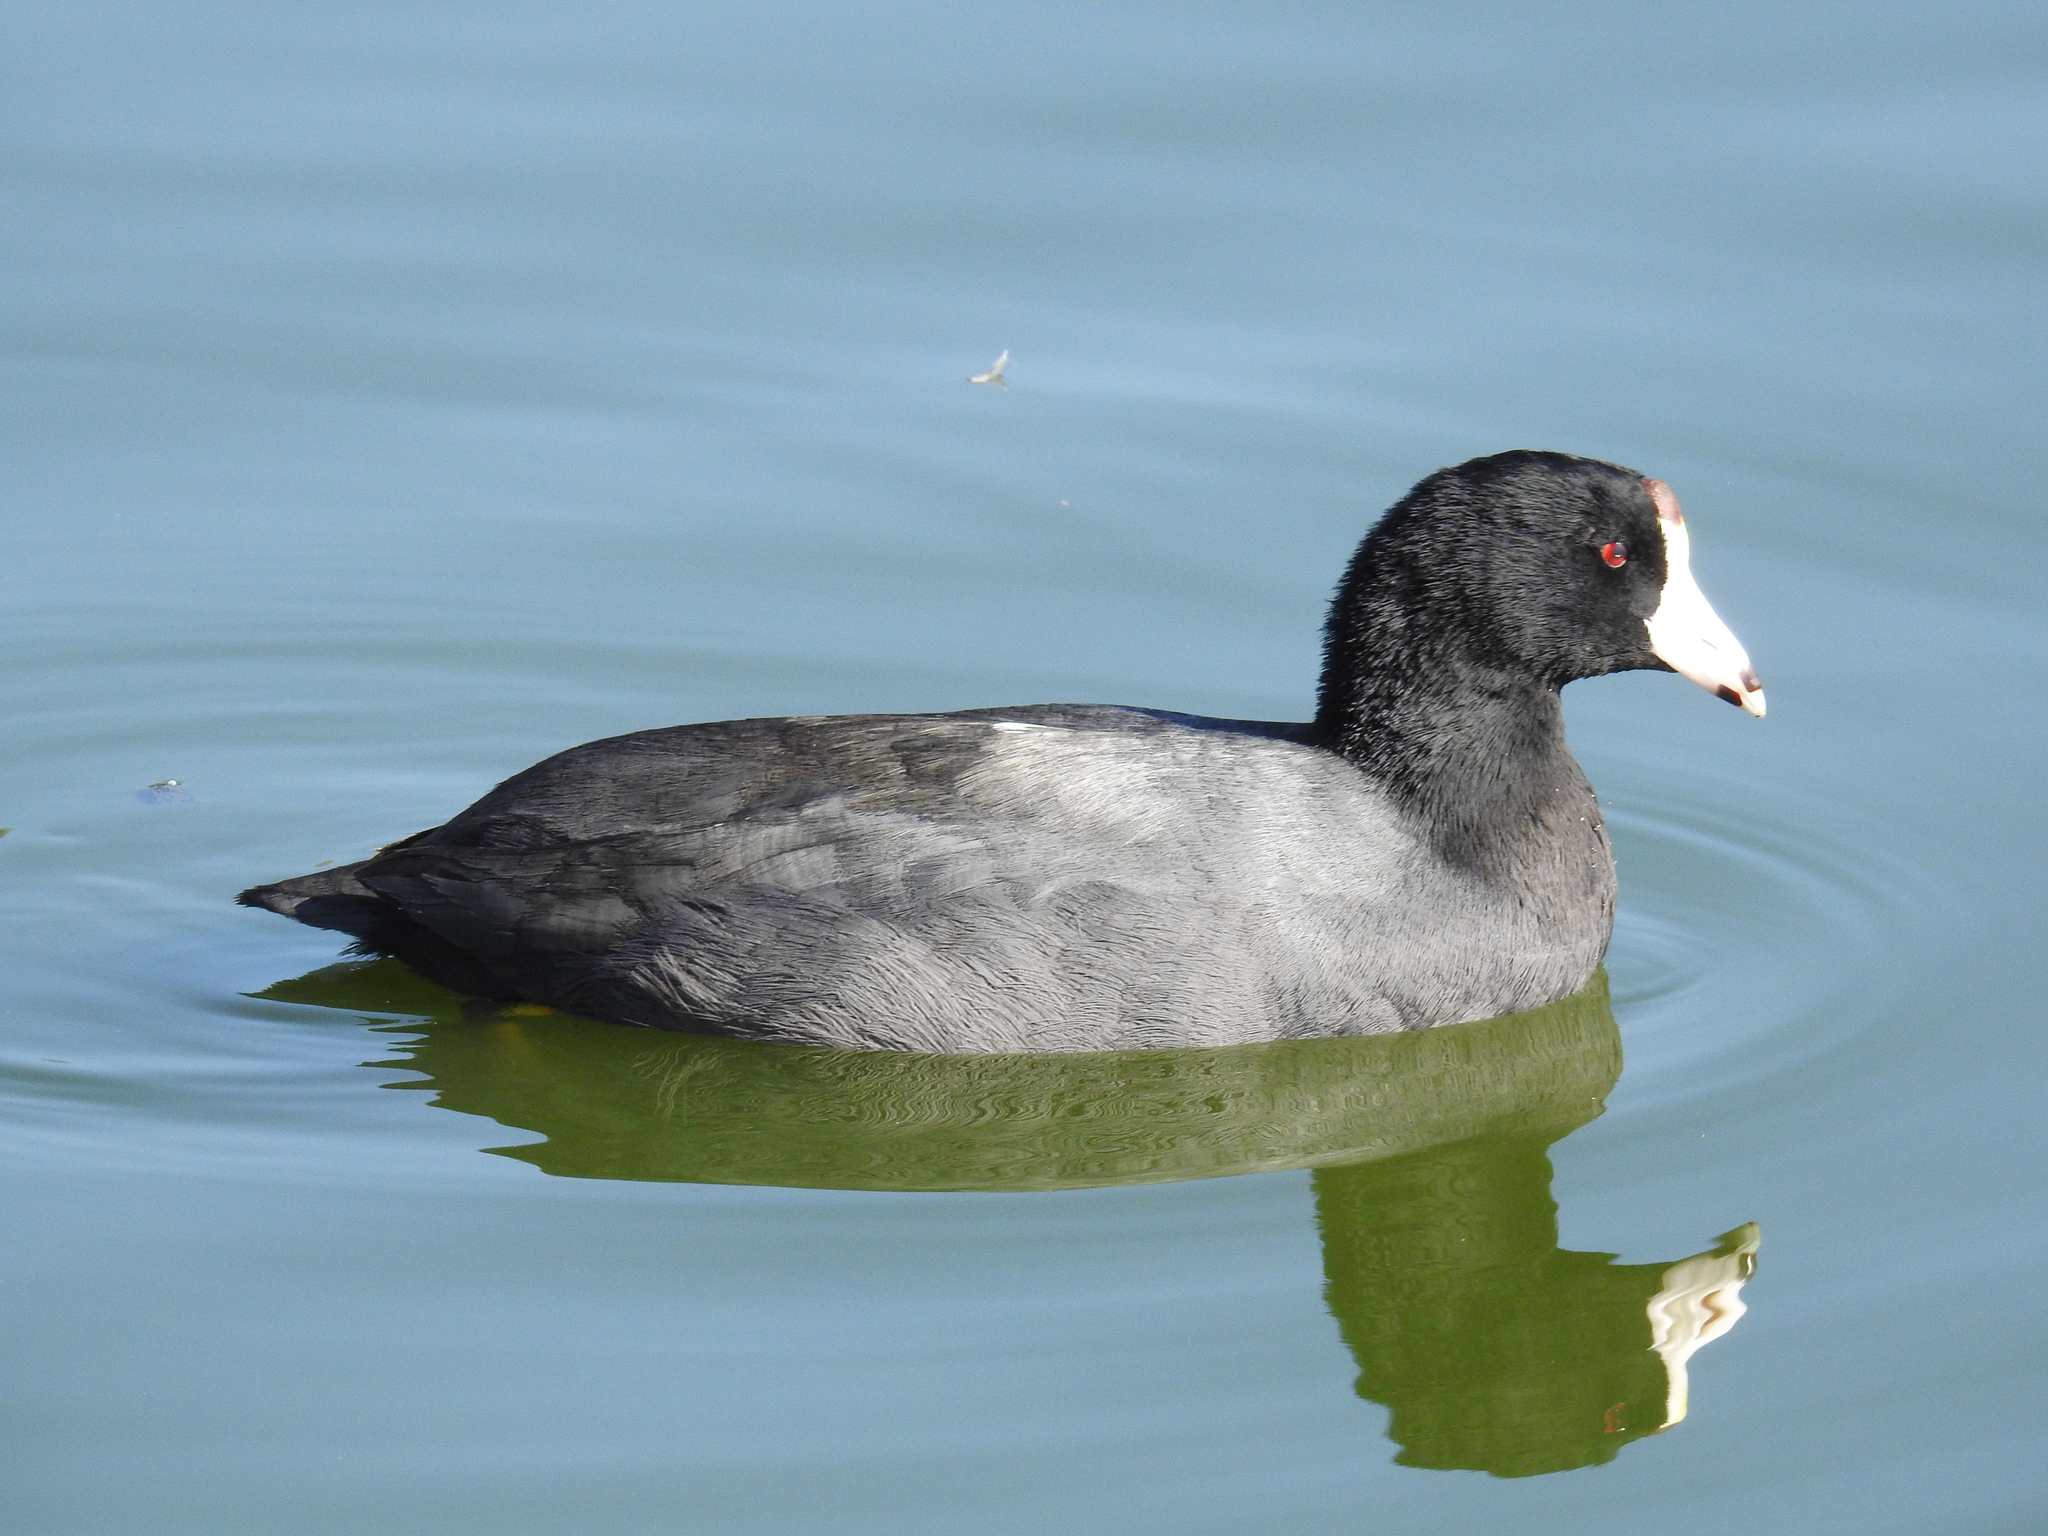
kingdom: Animalia
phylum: Chordata
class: Aves
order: Gruiformes
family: Rallidae
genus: Fulica
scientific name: Fulica americana
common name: American coot
